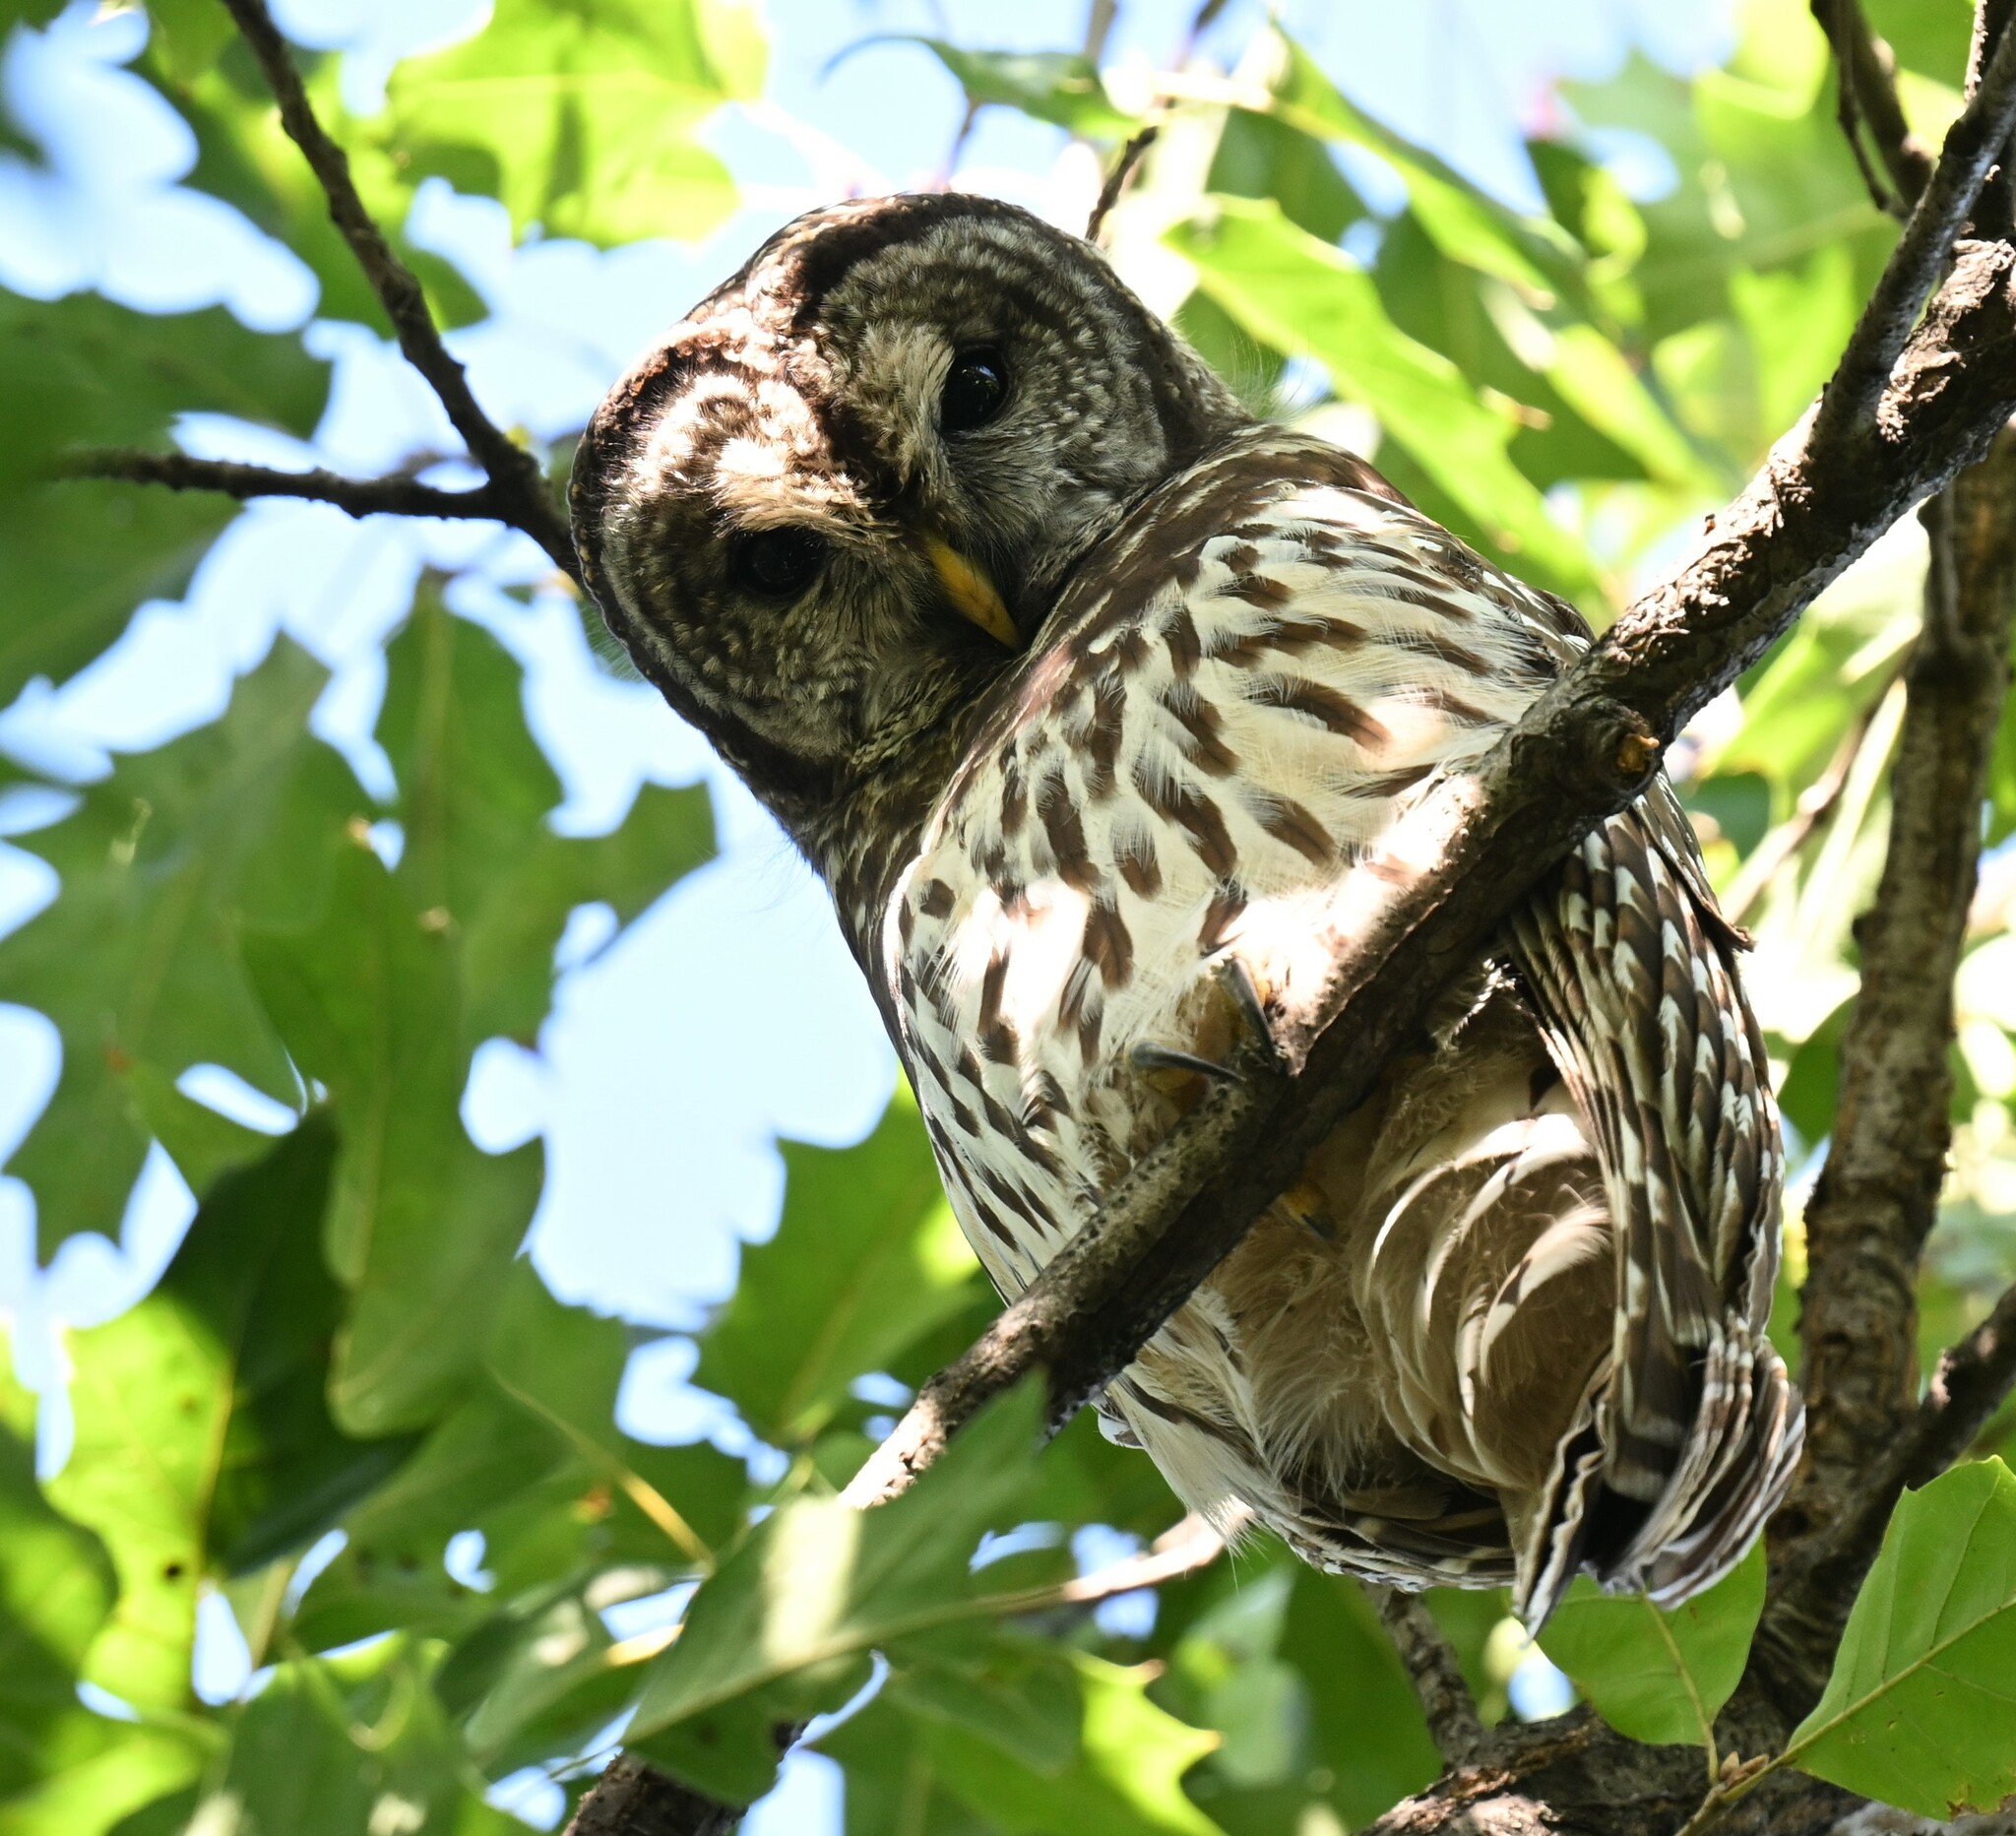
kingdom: Animalia
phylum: Chordata
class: Aves
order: Strigiformes
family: Strigidae
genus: Strix
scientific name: Strix varia
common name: Barred owl
